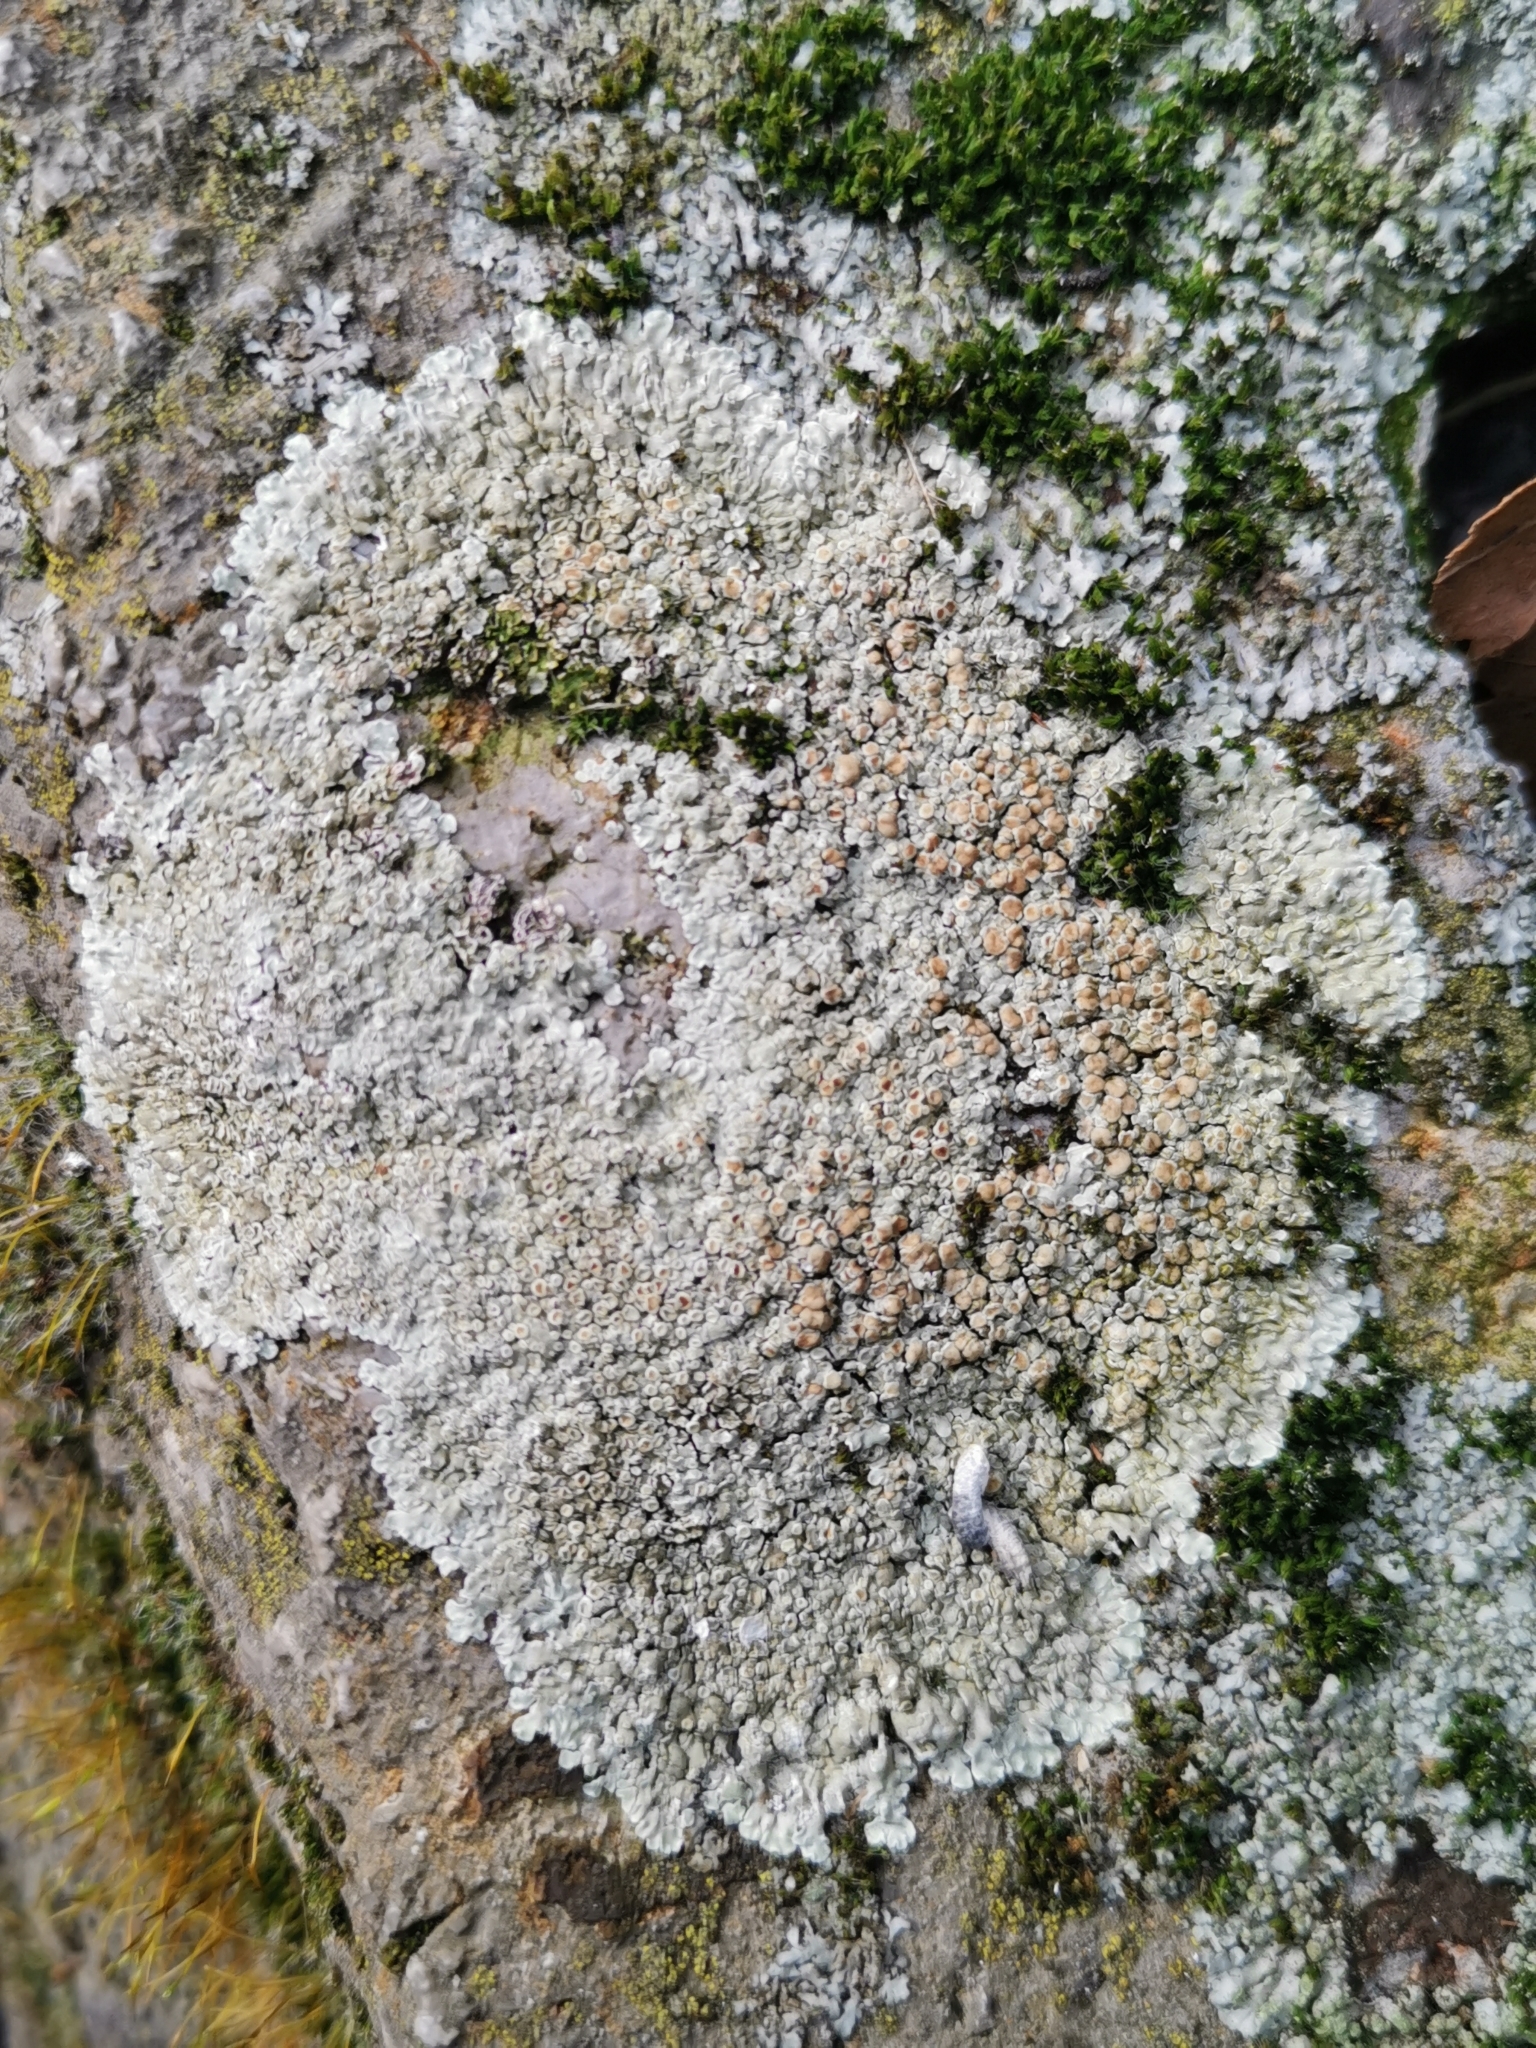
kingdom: Fungi
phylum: Ascomycota
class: Lecanoromycetes
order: Lecanorales
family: Lecanoraceae
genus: Protoparmeliopsis
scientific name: Protoparmeliopsis muralis
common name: Stonewall rim lichen
